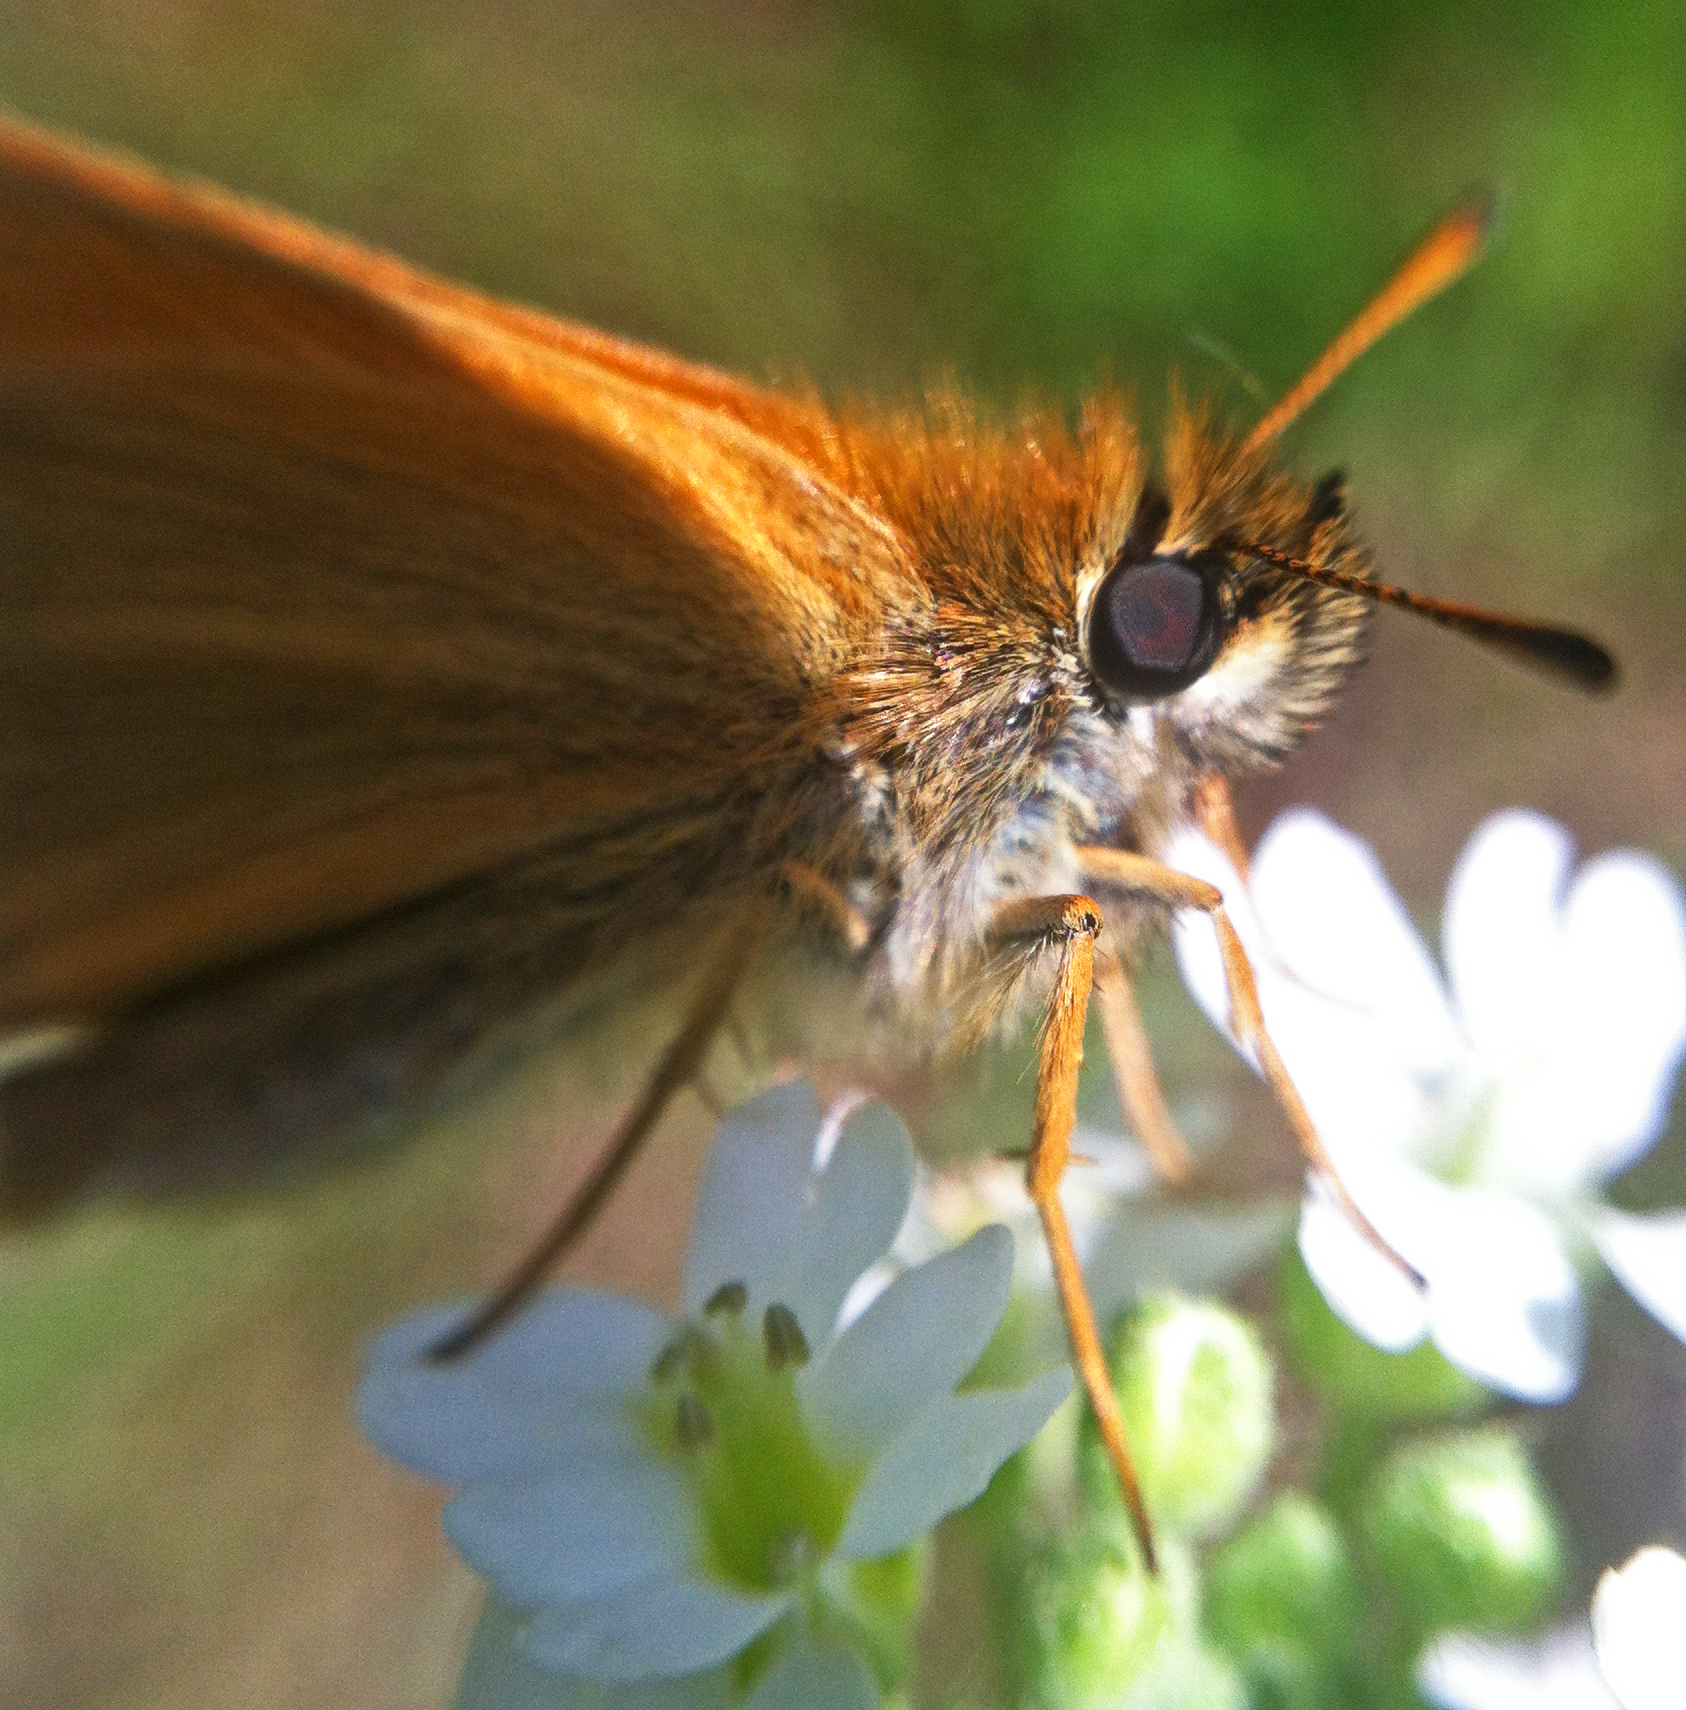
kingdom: Animalia
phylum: Arthropoda
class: Insecta
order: Lepidoptera
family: Hesperiidae
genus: Thymelicus
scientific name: Thymelicus lineola
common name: Essex skipper
